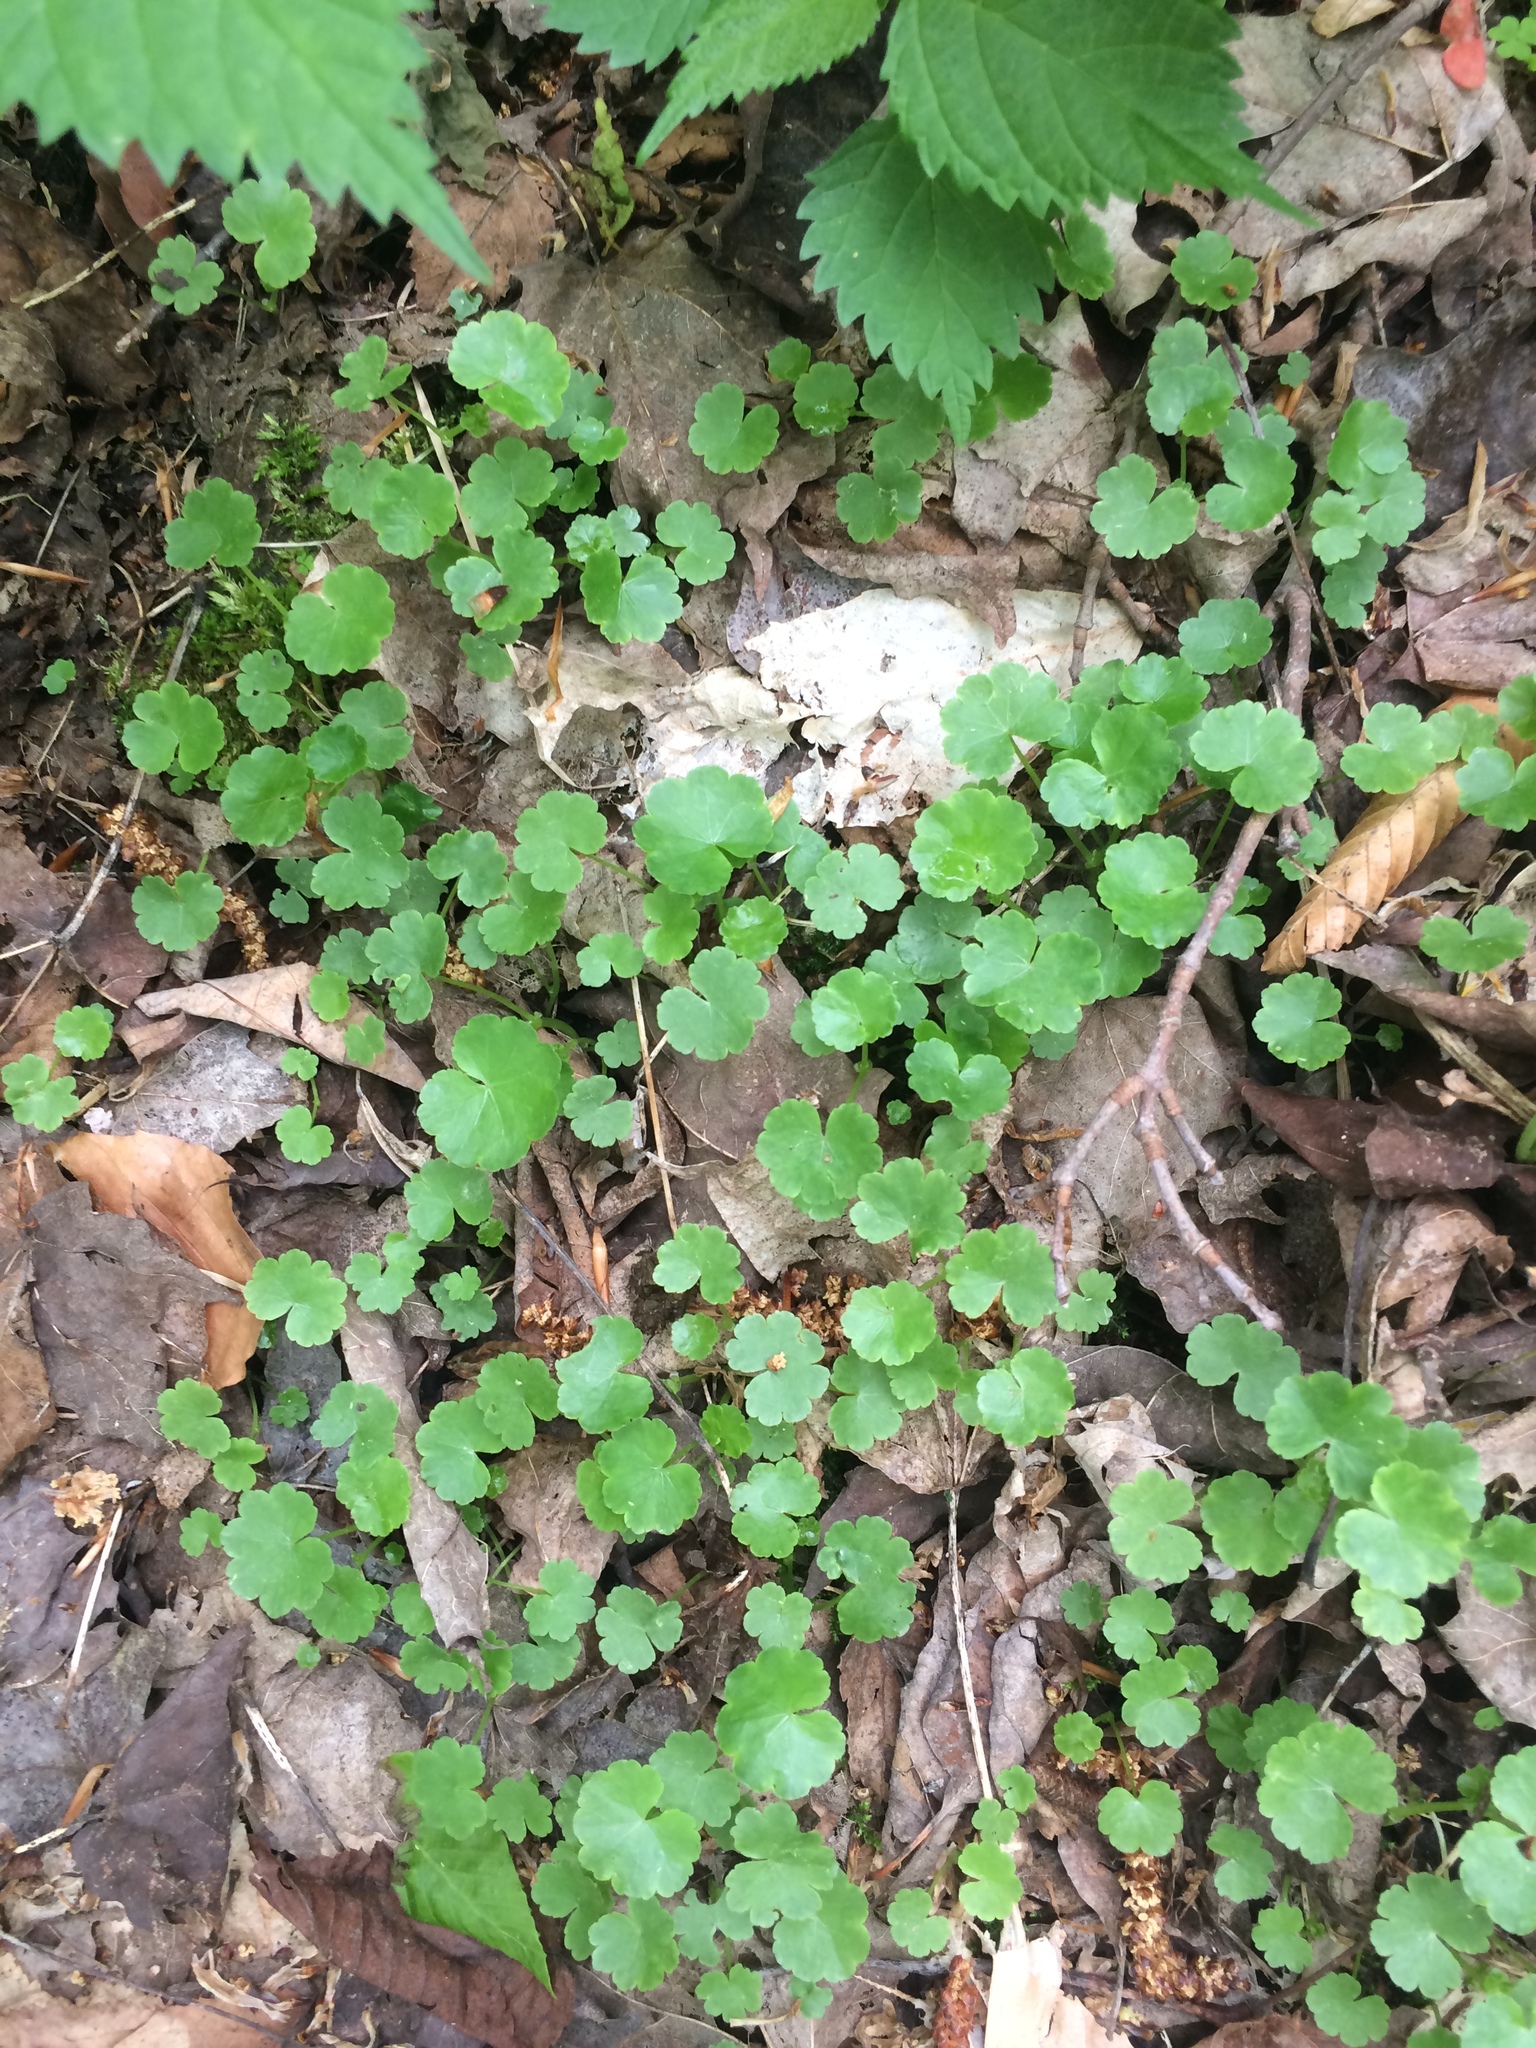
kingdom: Plantae
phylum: Tracheophyta
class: Magnoliopsida
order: Apiales
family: Araliaceae
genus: Hydrocotyle
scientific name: Hydrocotyle americana
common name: American water-pennywort
